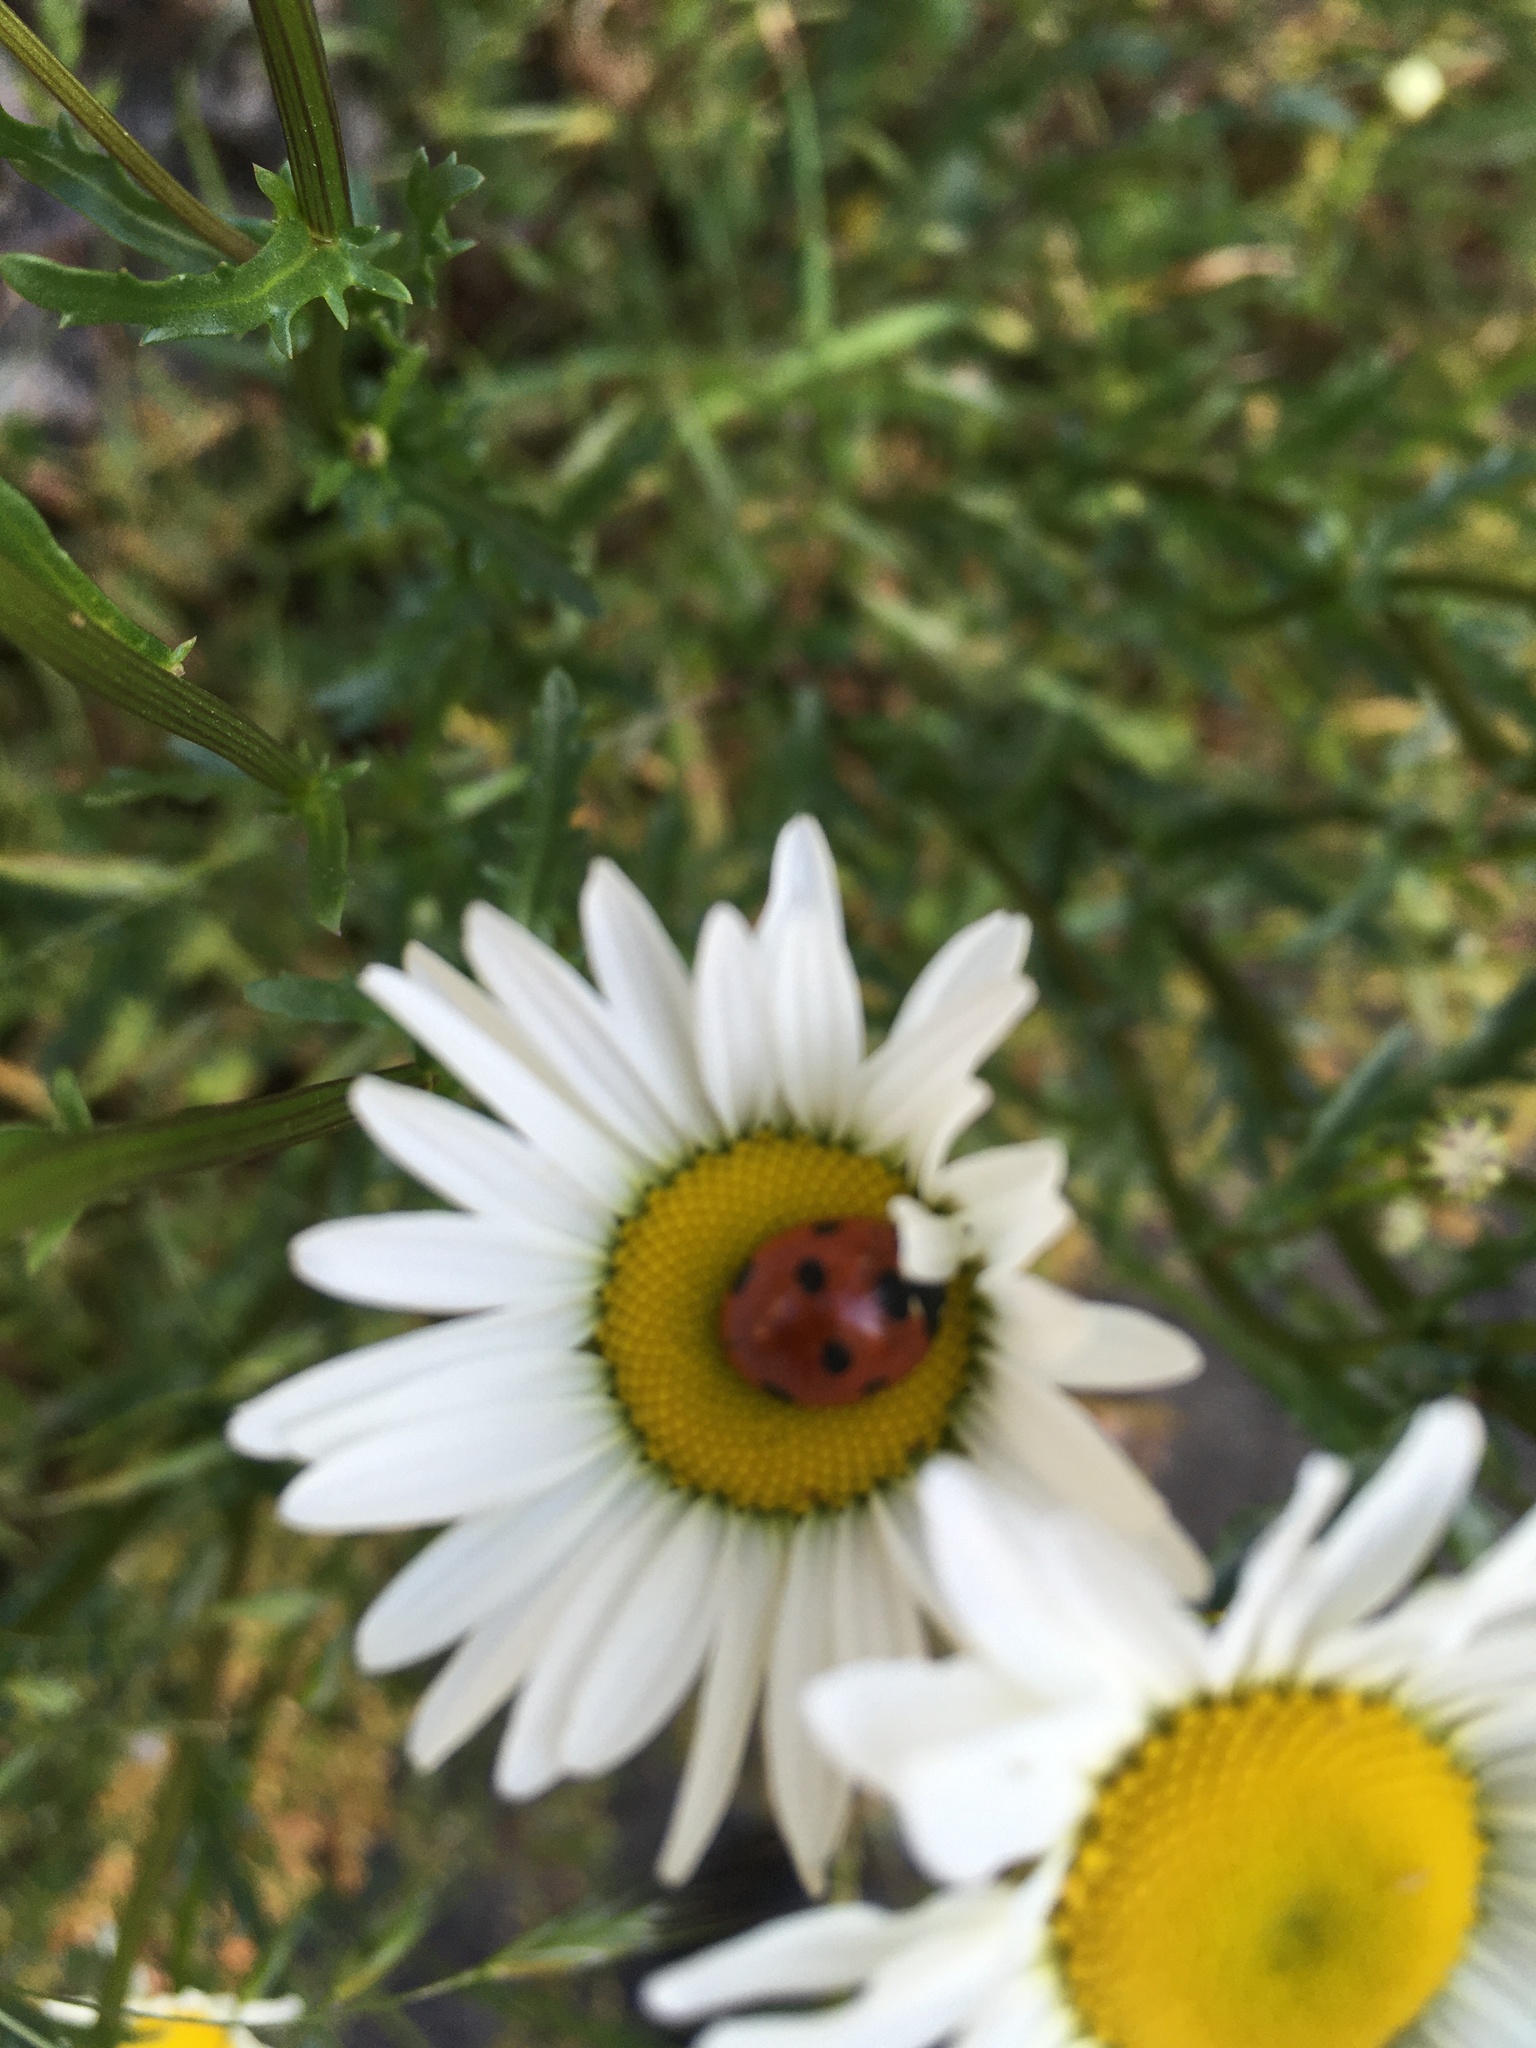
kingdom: Animalia
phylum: Arthropoda
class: Insecta
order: Coleoptera
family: Coccinellidae
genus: Coccinella
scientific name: Coccinella septempunctata
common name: Sevenspotted lady beetle
